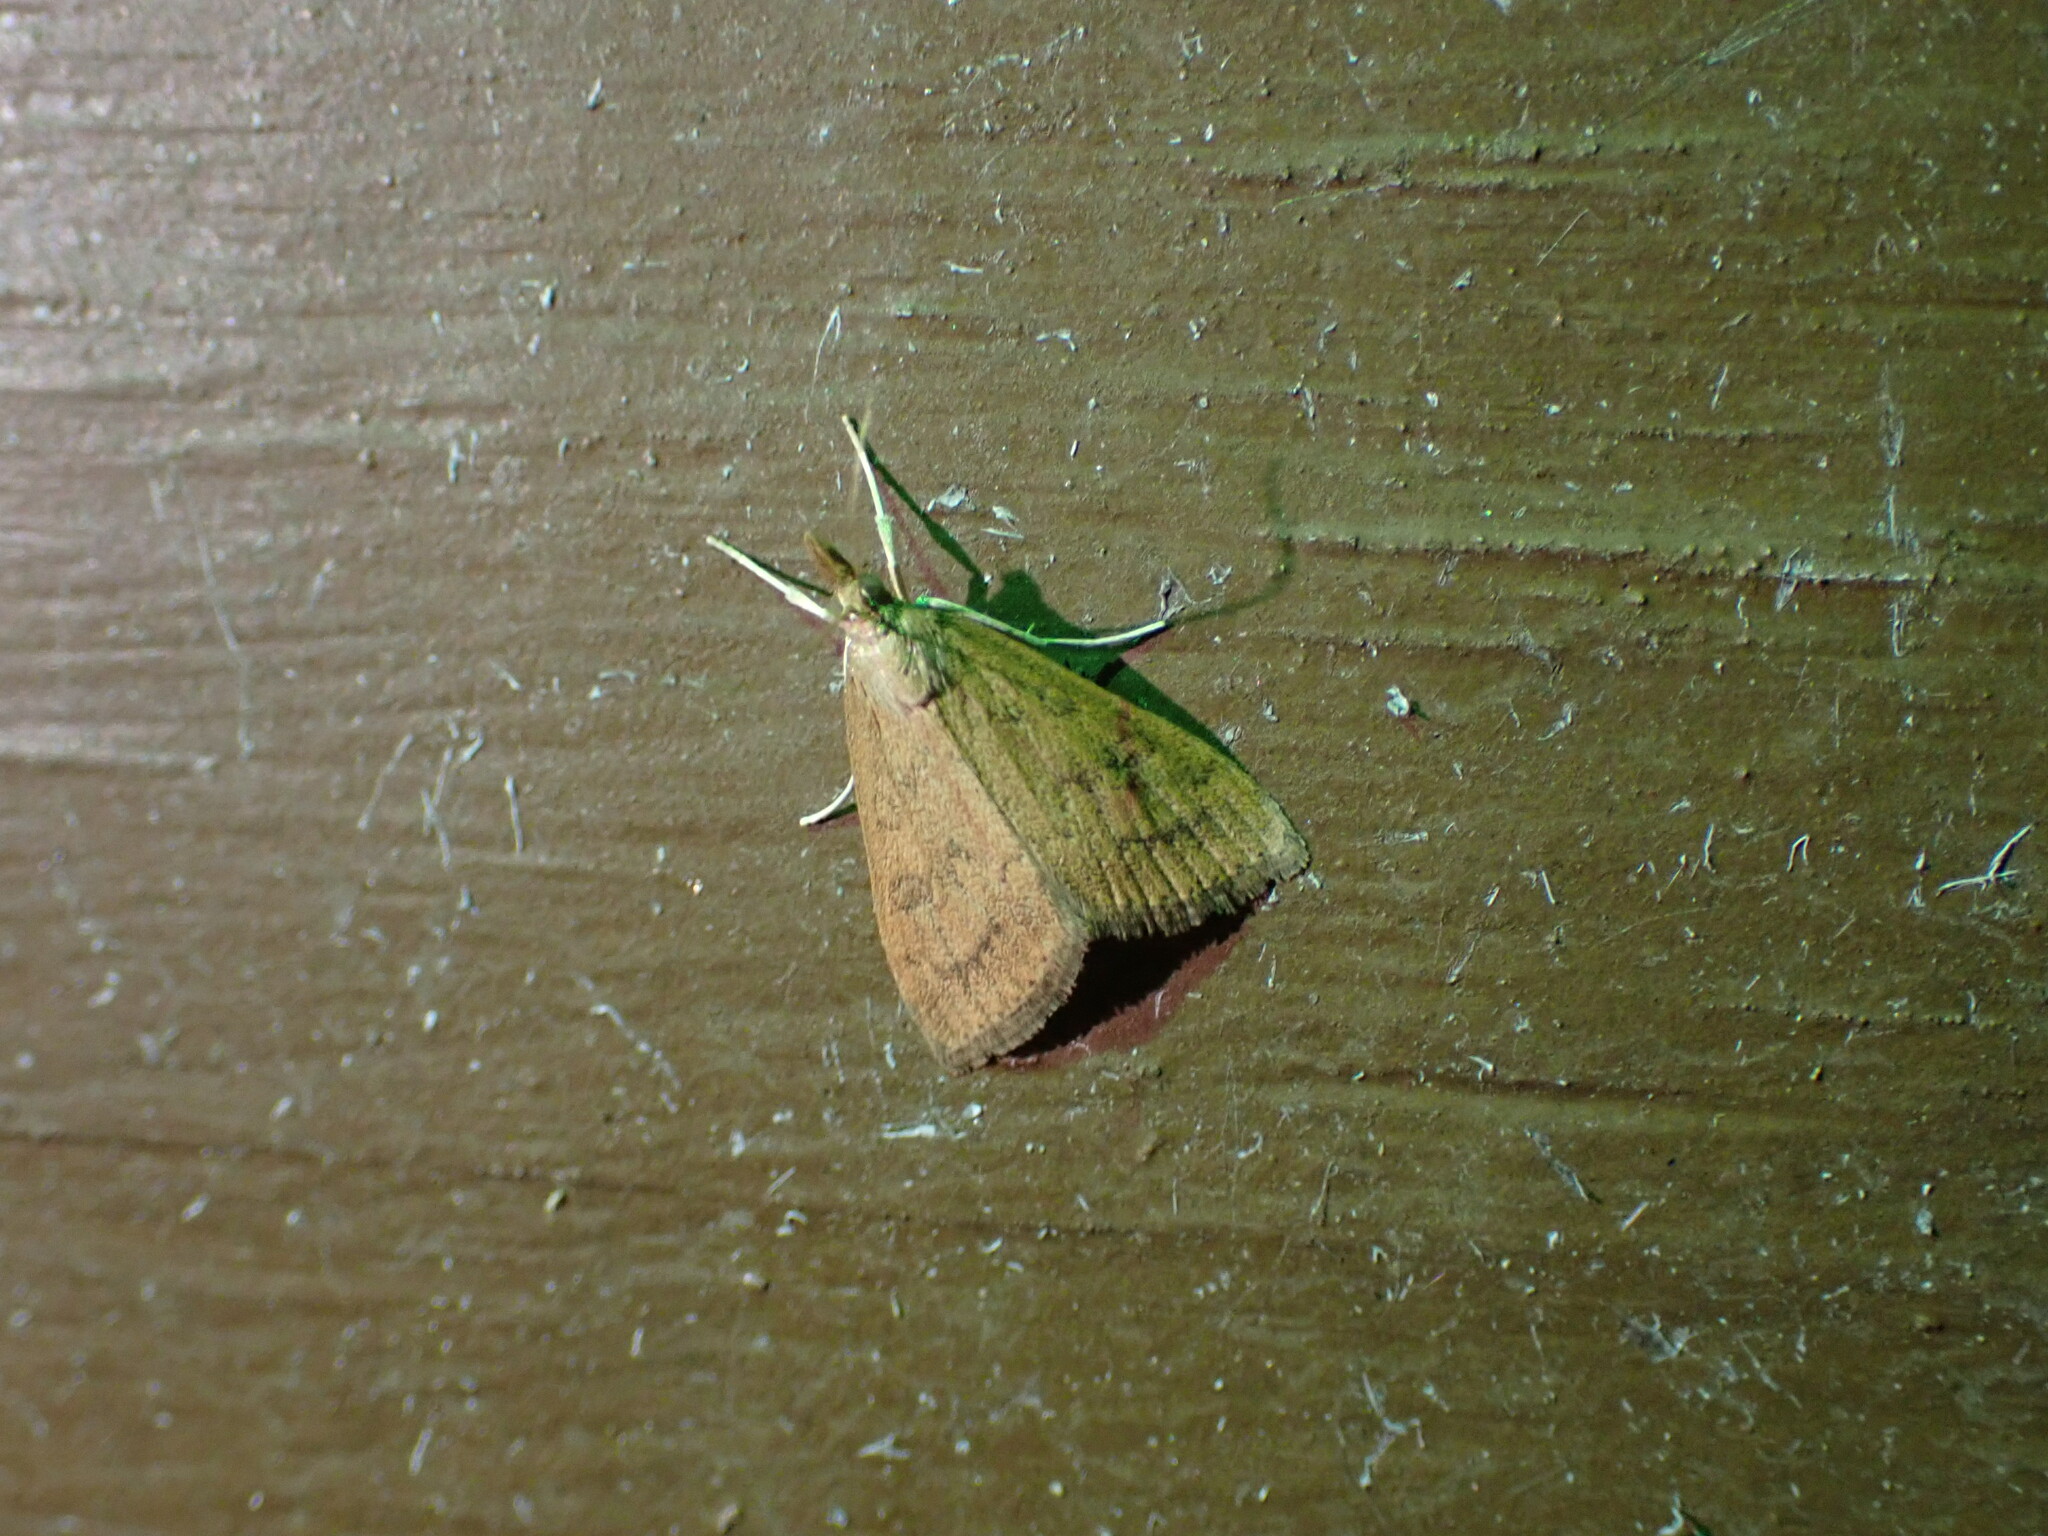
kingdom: Animalia
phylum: Arthropoda
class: Insecta
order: Lepidoptera
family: Crambidae
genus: Udea
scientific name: Udea rubigalis
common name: Celery leaftier moth
